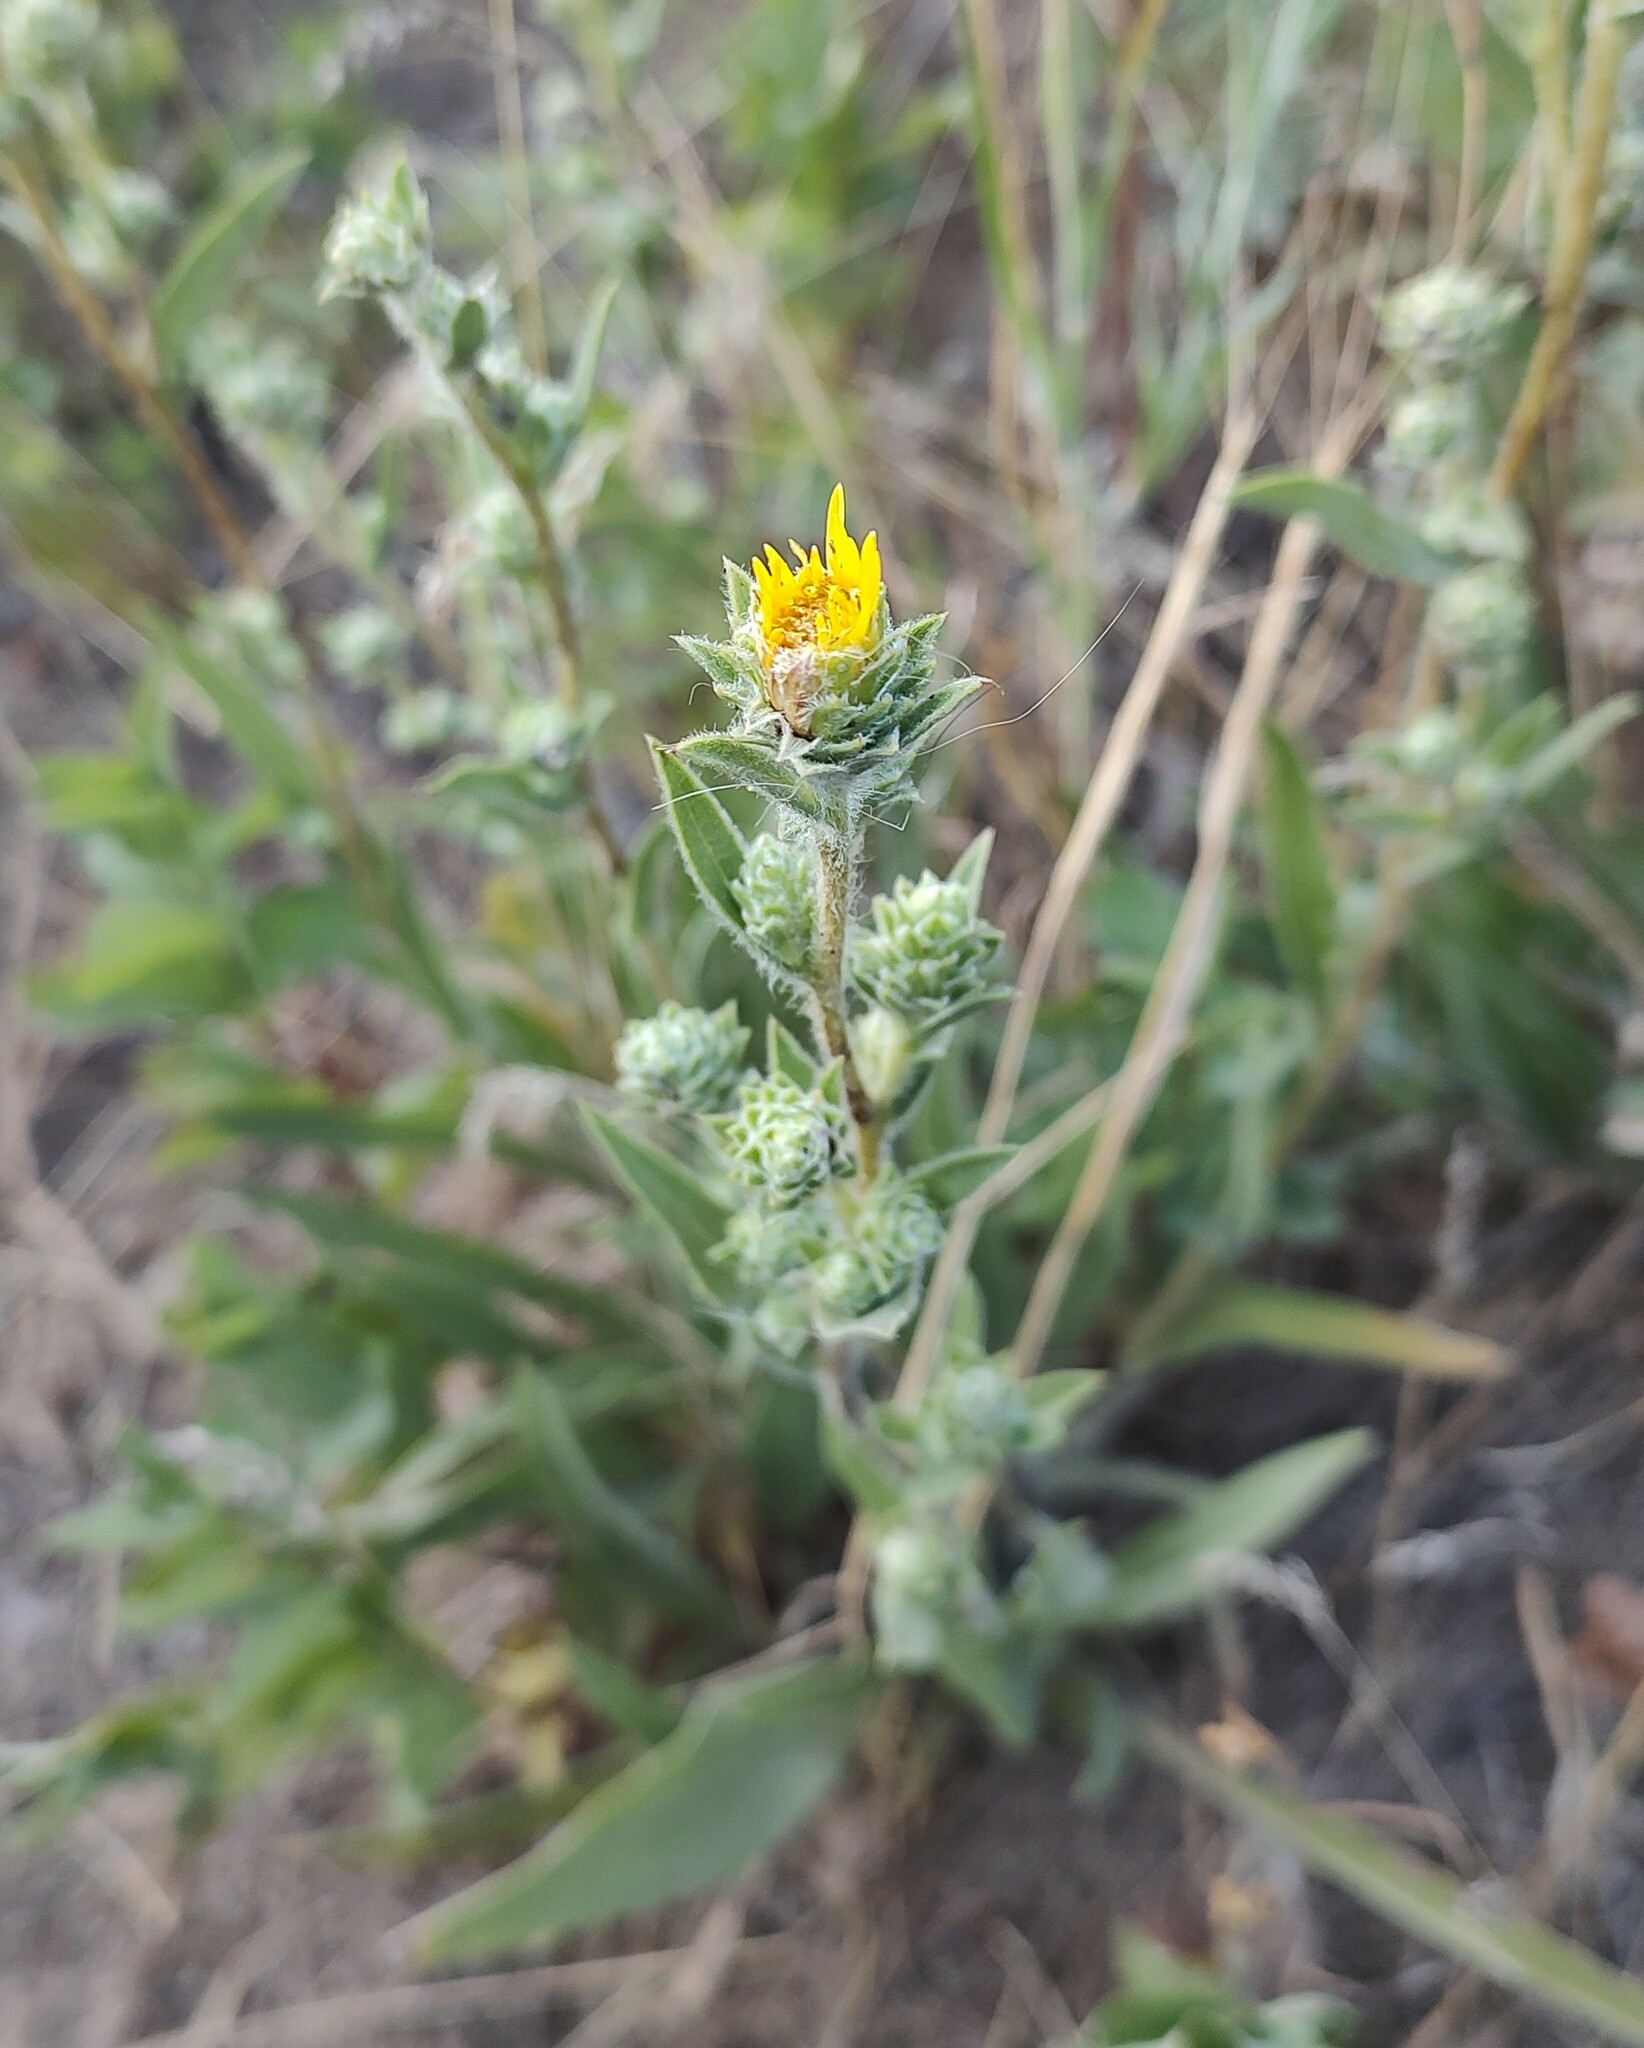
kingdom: Plantae
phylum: Tracheophyta
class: Magnoliopsida
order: Asterales
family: Asteraceae
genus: Pyrrocoma
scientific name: Pyrrocoma liatriformis
